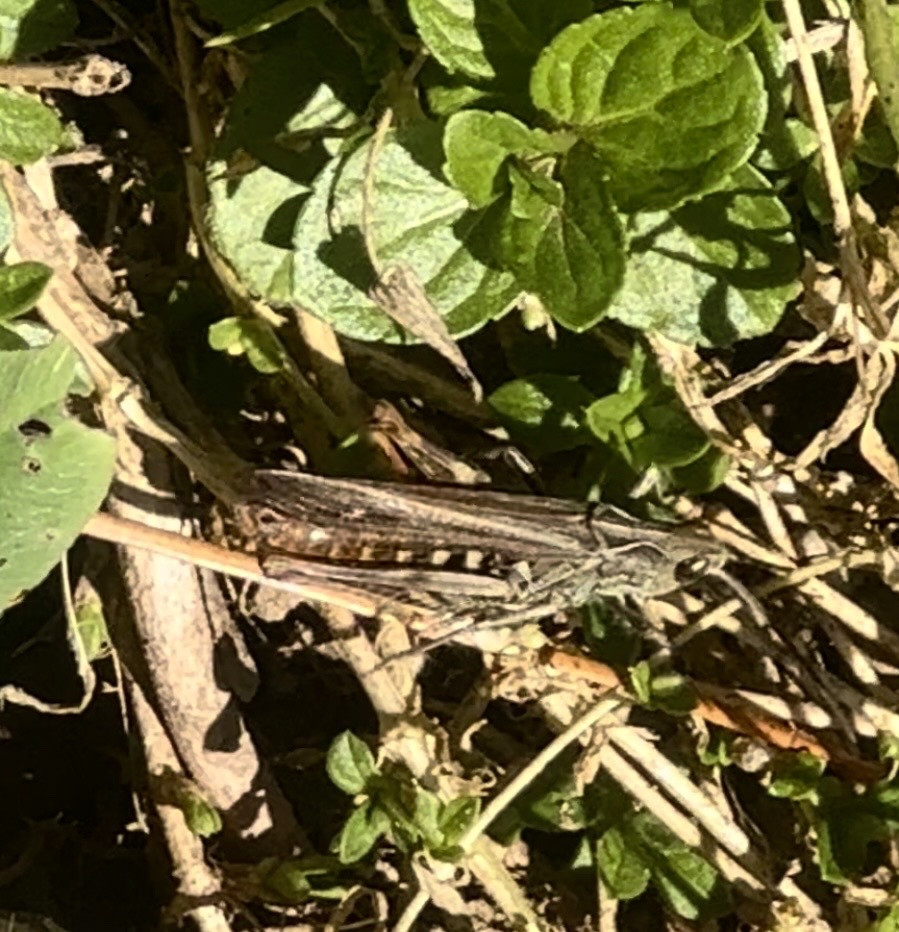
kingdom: Animalia
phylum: Arthropoda
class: Insecta
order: Orthoptera
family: Acrididae
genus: Chorthippus
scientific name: Chorthippus biguttulus
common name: Bow-winged grasshopper
